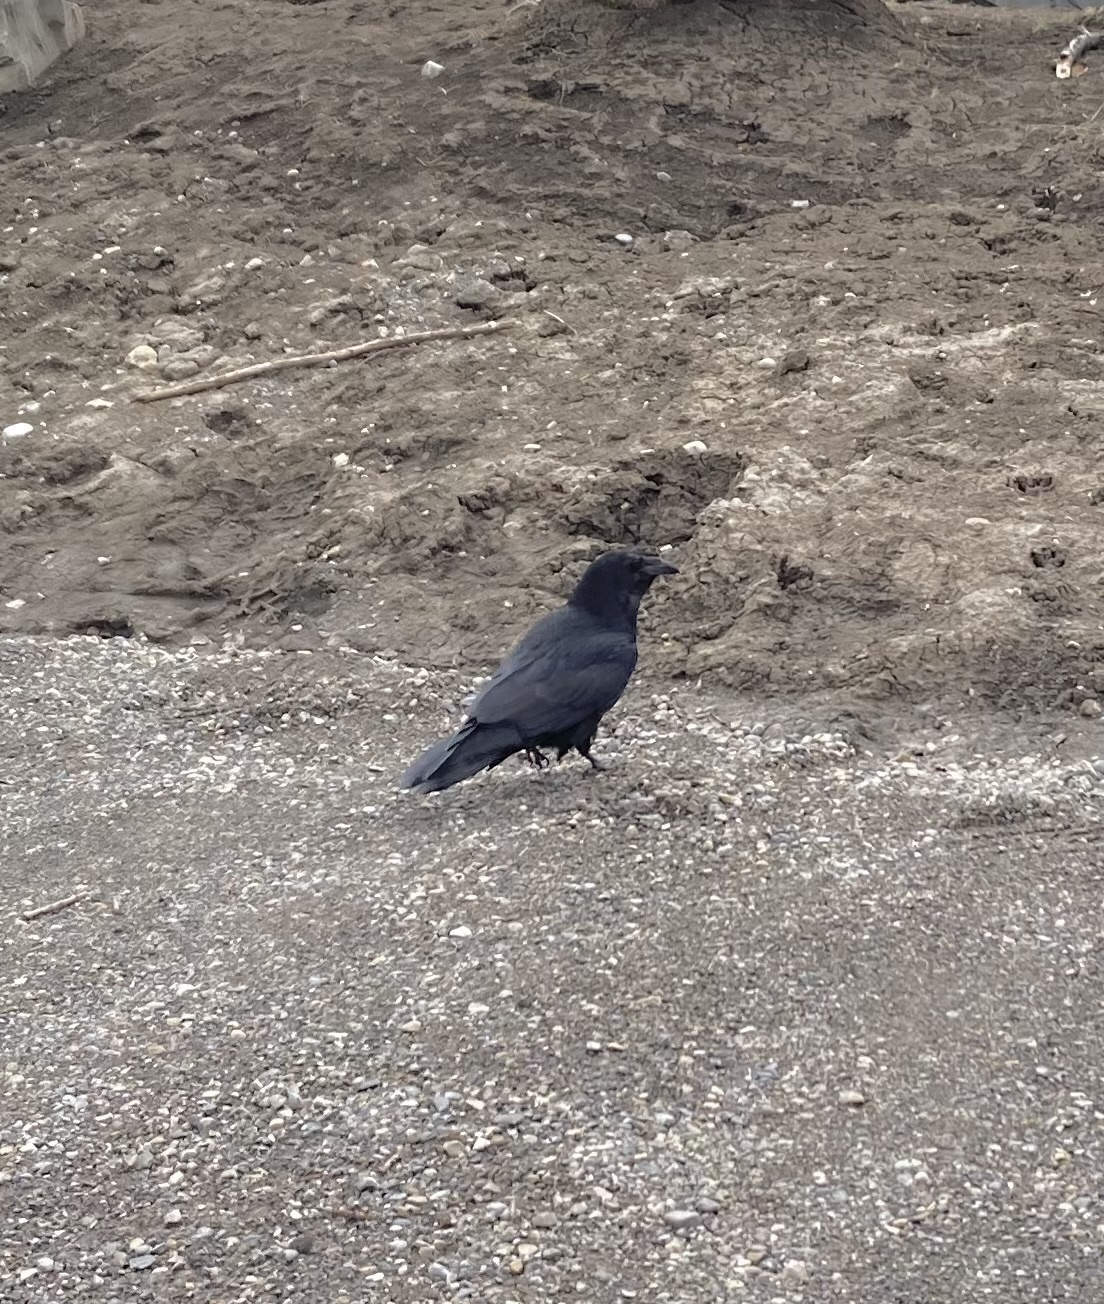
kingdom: Animalia
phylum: Chordata
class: Aves
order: Passeriformes
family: Corvidae
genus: Corvus
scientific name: Corvus corax
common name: Common raven
